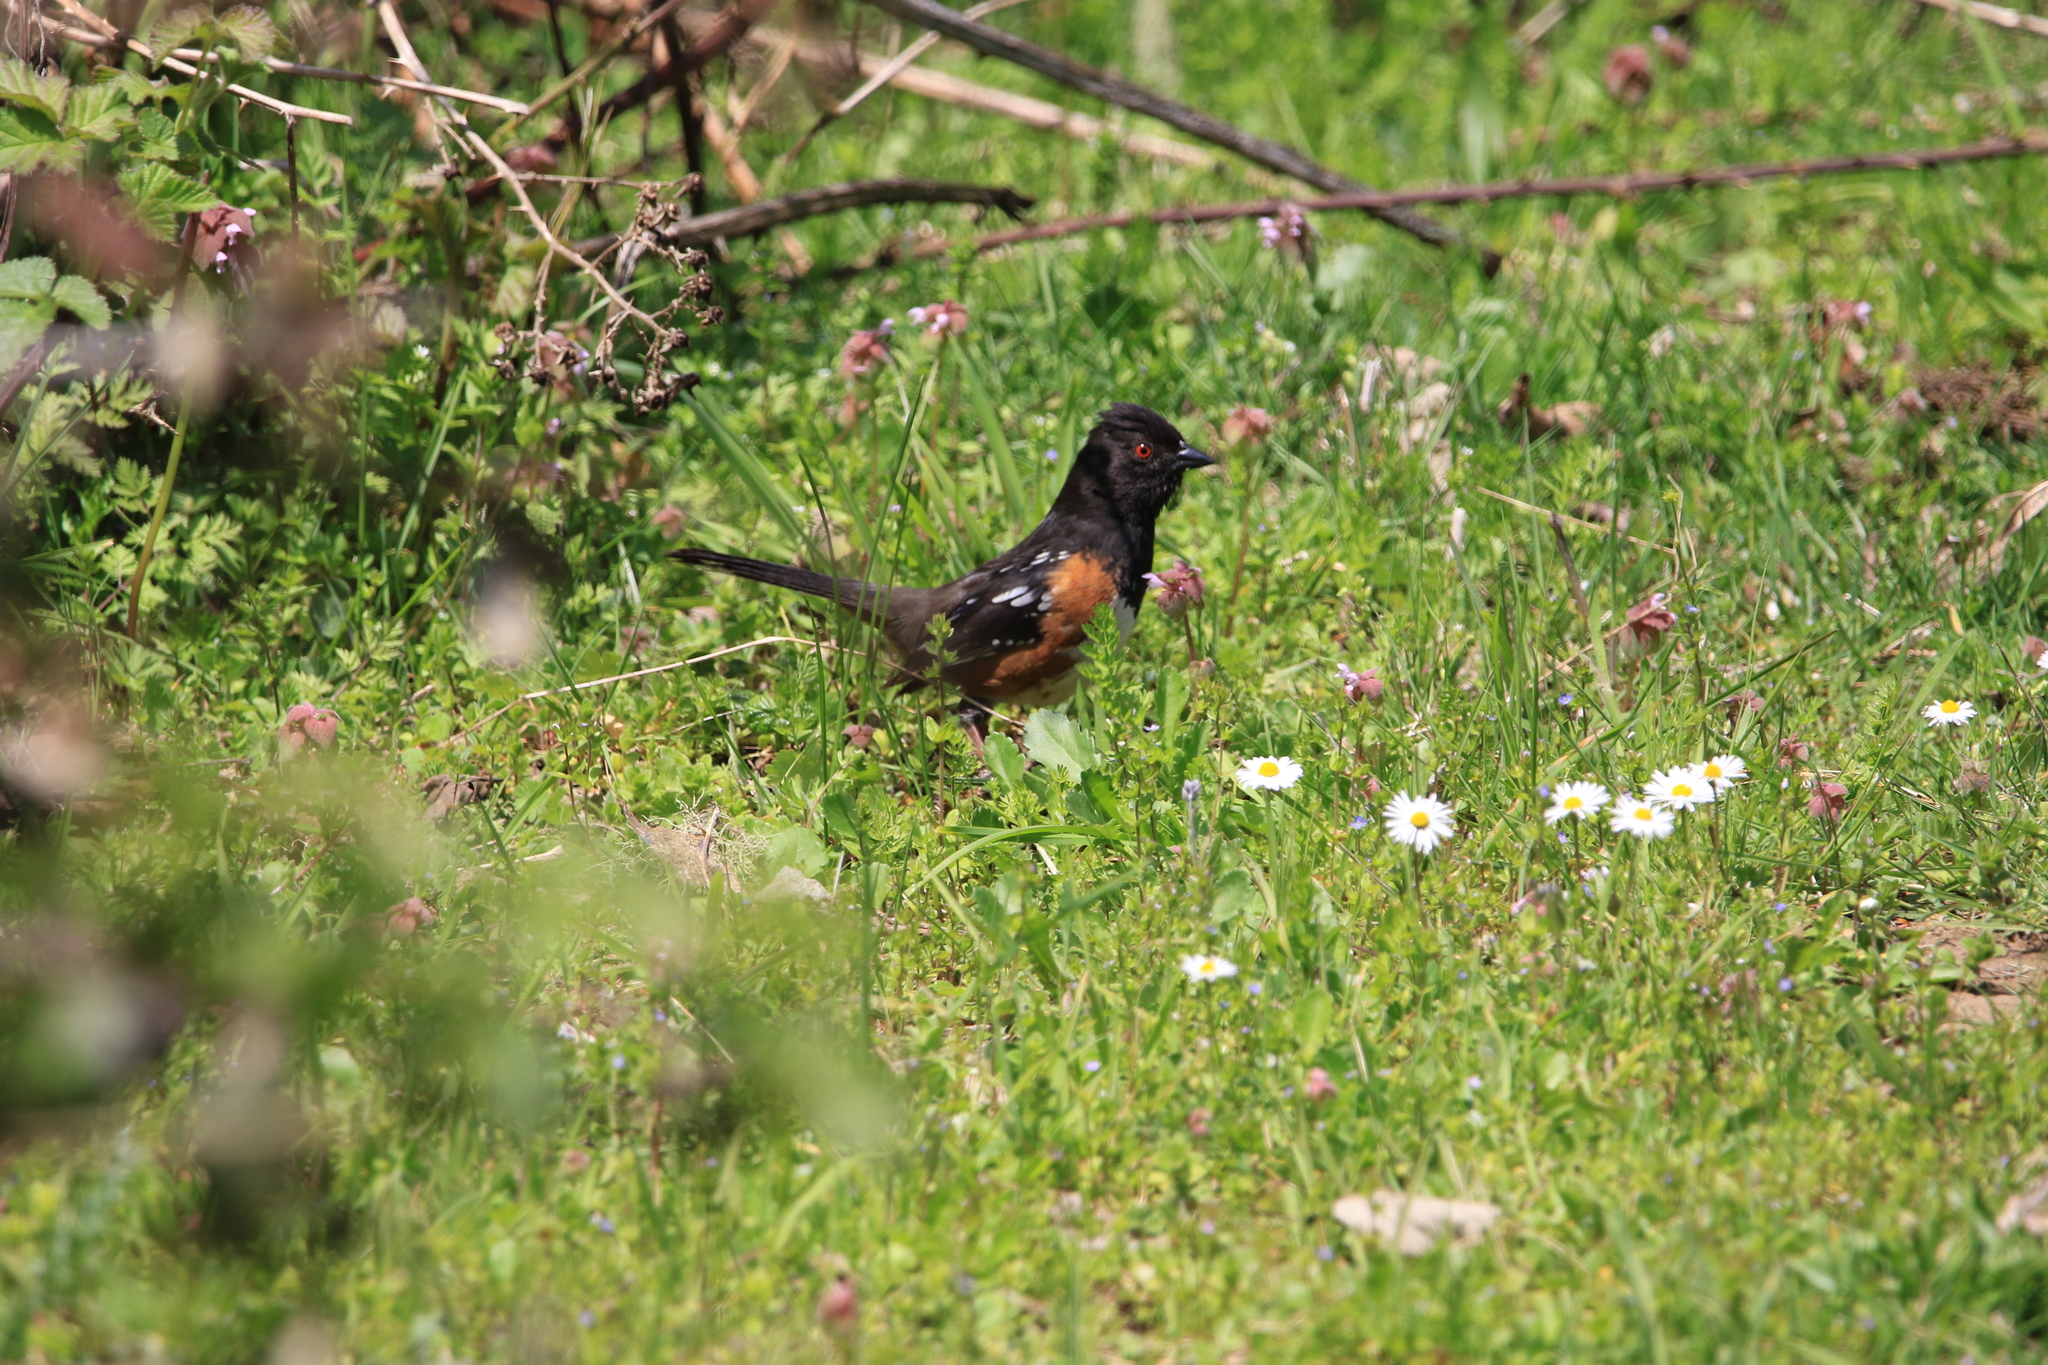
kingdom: Animalia
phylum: Chordata
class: Aves
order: Passeriformes
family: Passerellidae
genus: Pipilo
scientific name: Pipilo maculatus
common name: Spotted towhee
